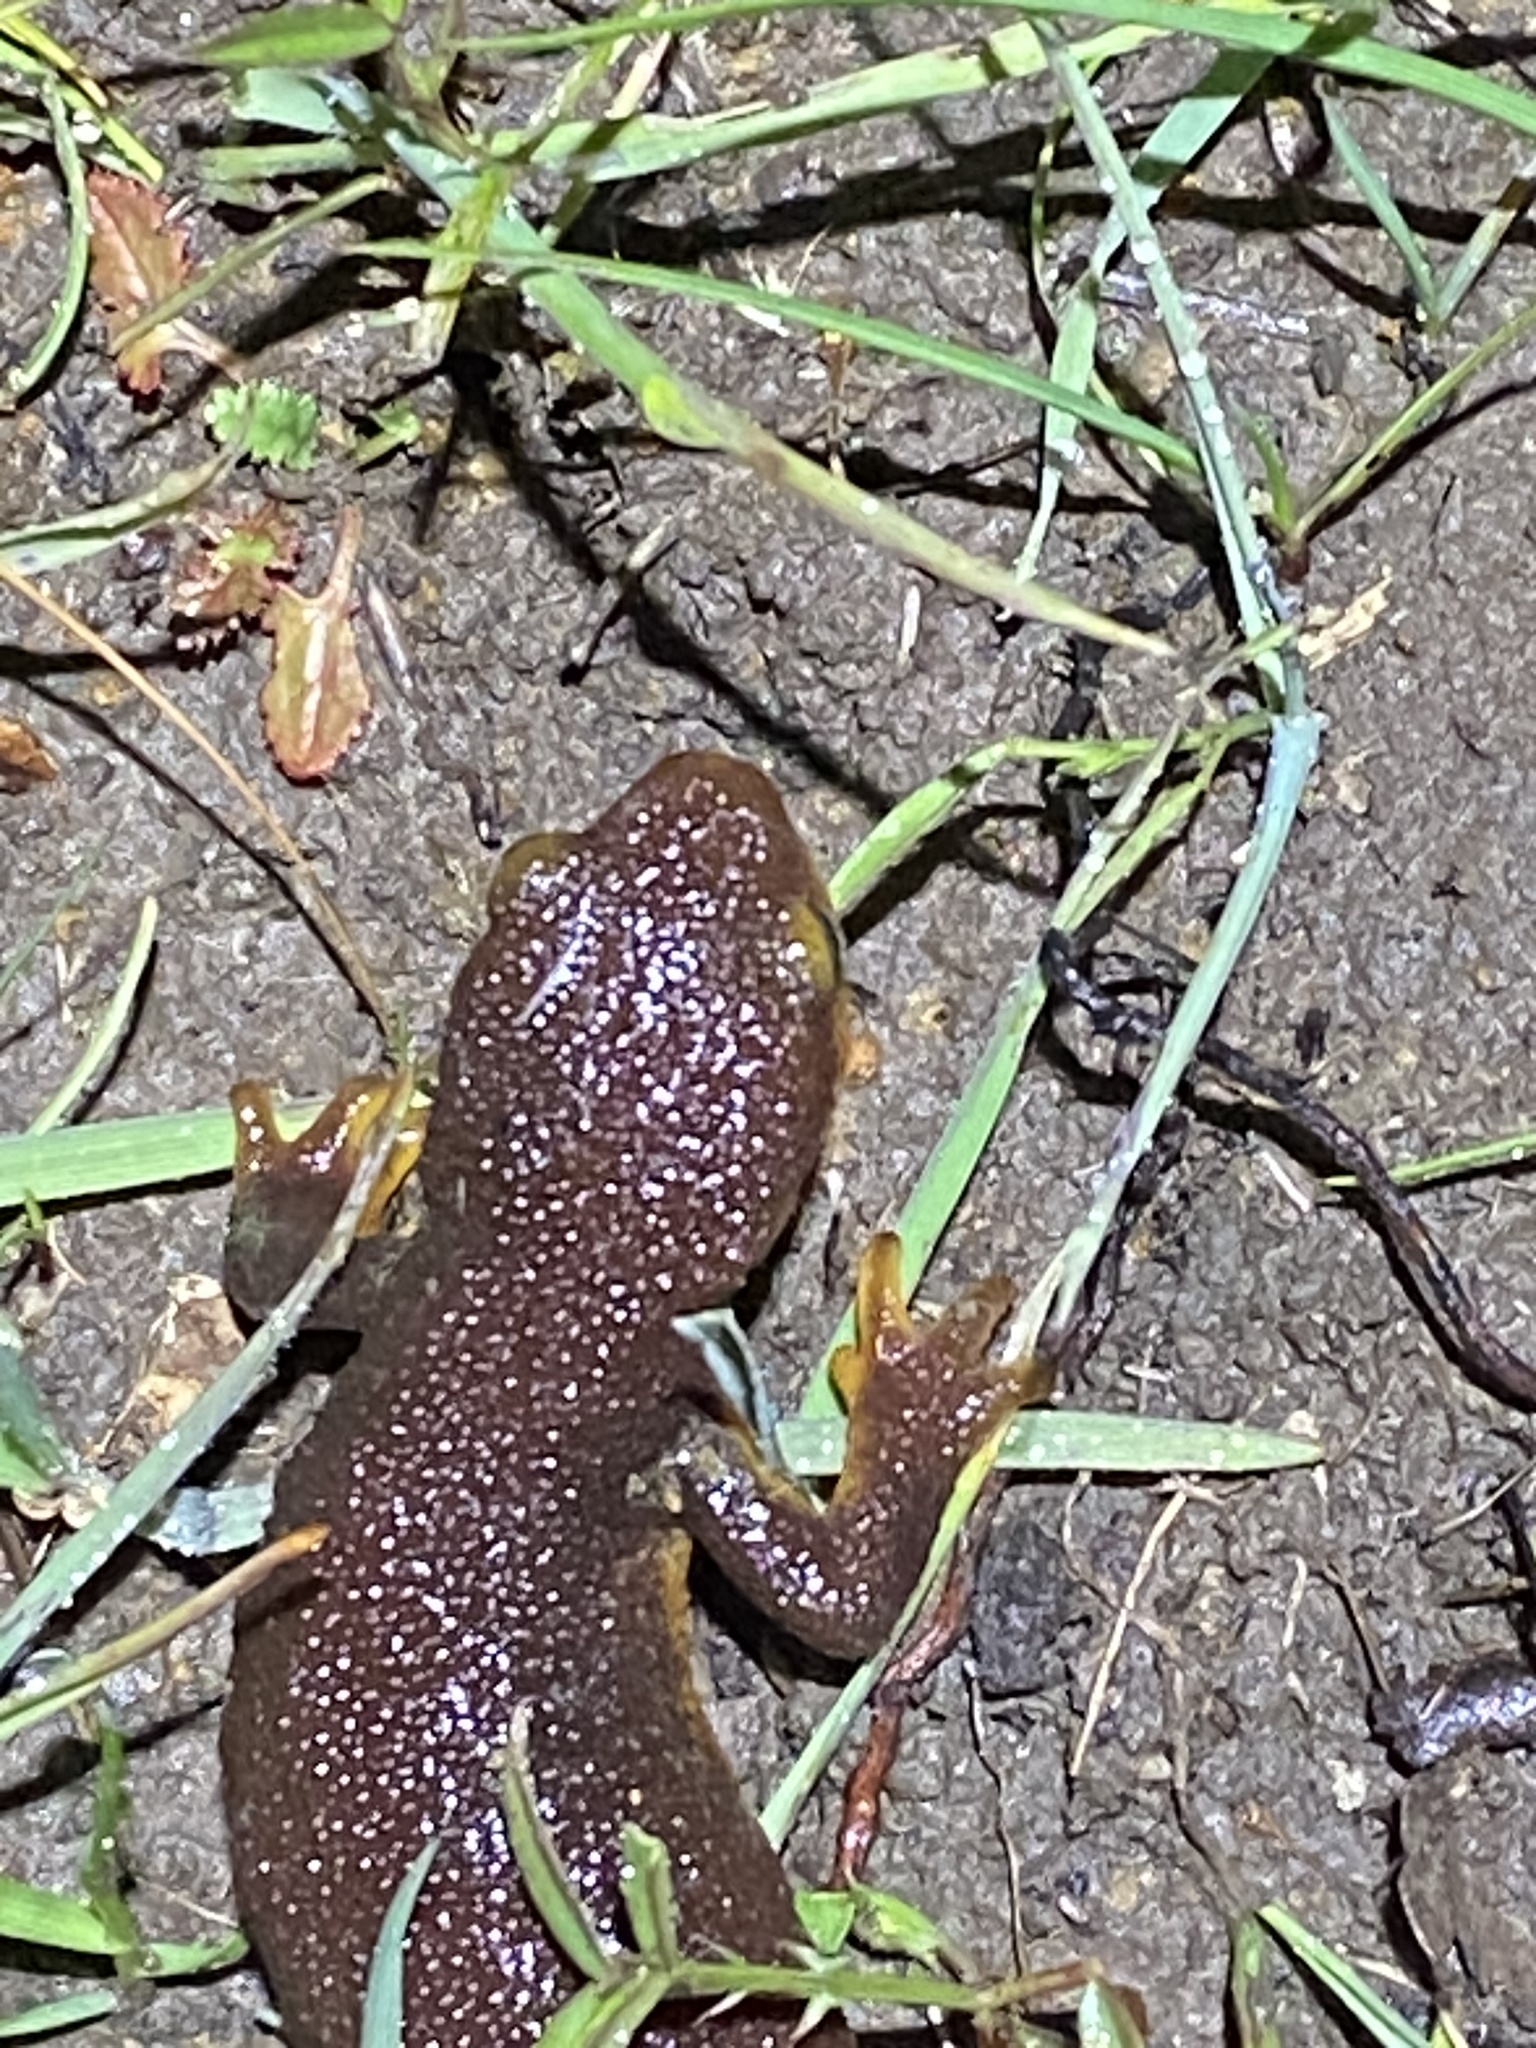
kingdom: Animalia
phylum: Chordata
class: Amphibia
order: Caudata
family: Salamandridae
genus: Taricha
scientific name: Taricha torosa
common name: California newt
